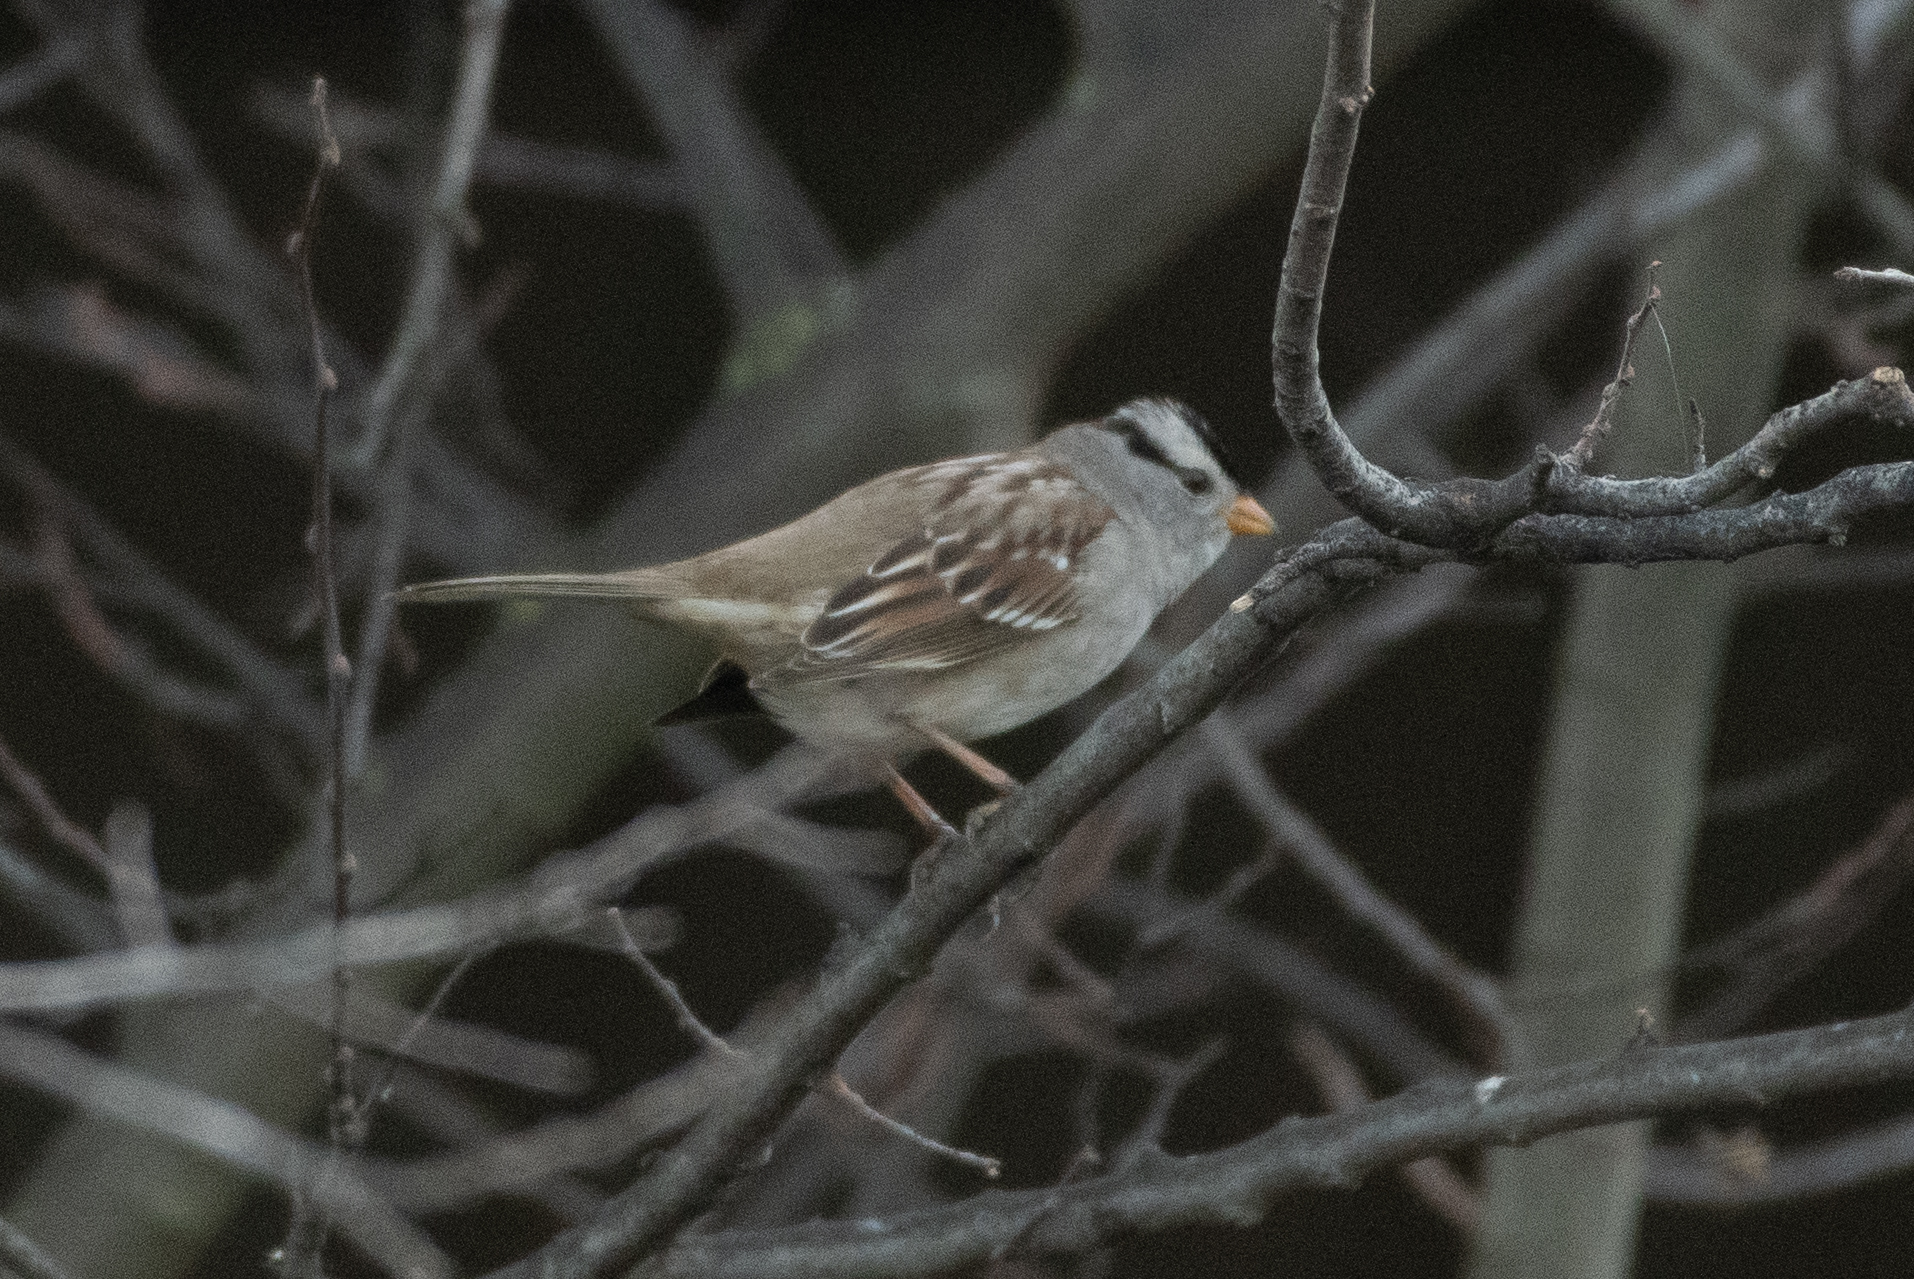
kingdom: Animalia
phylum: Chordata
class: Aves
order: Passeriformes
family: Passerellidae
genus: Zonotrichia
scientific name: Zonotrichia leucophrys
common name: White-crowned sparrow
